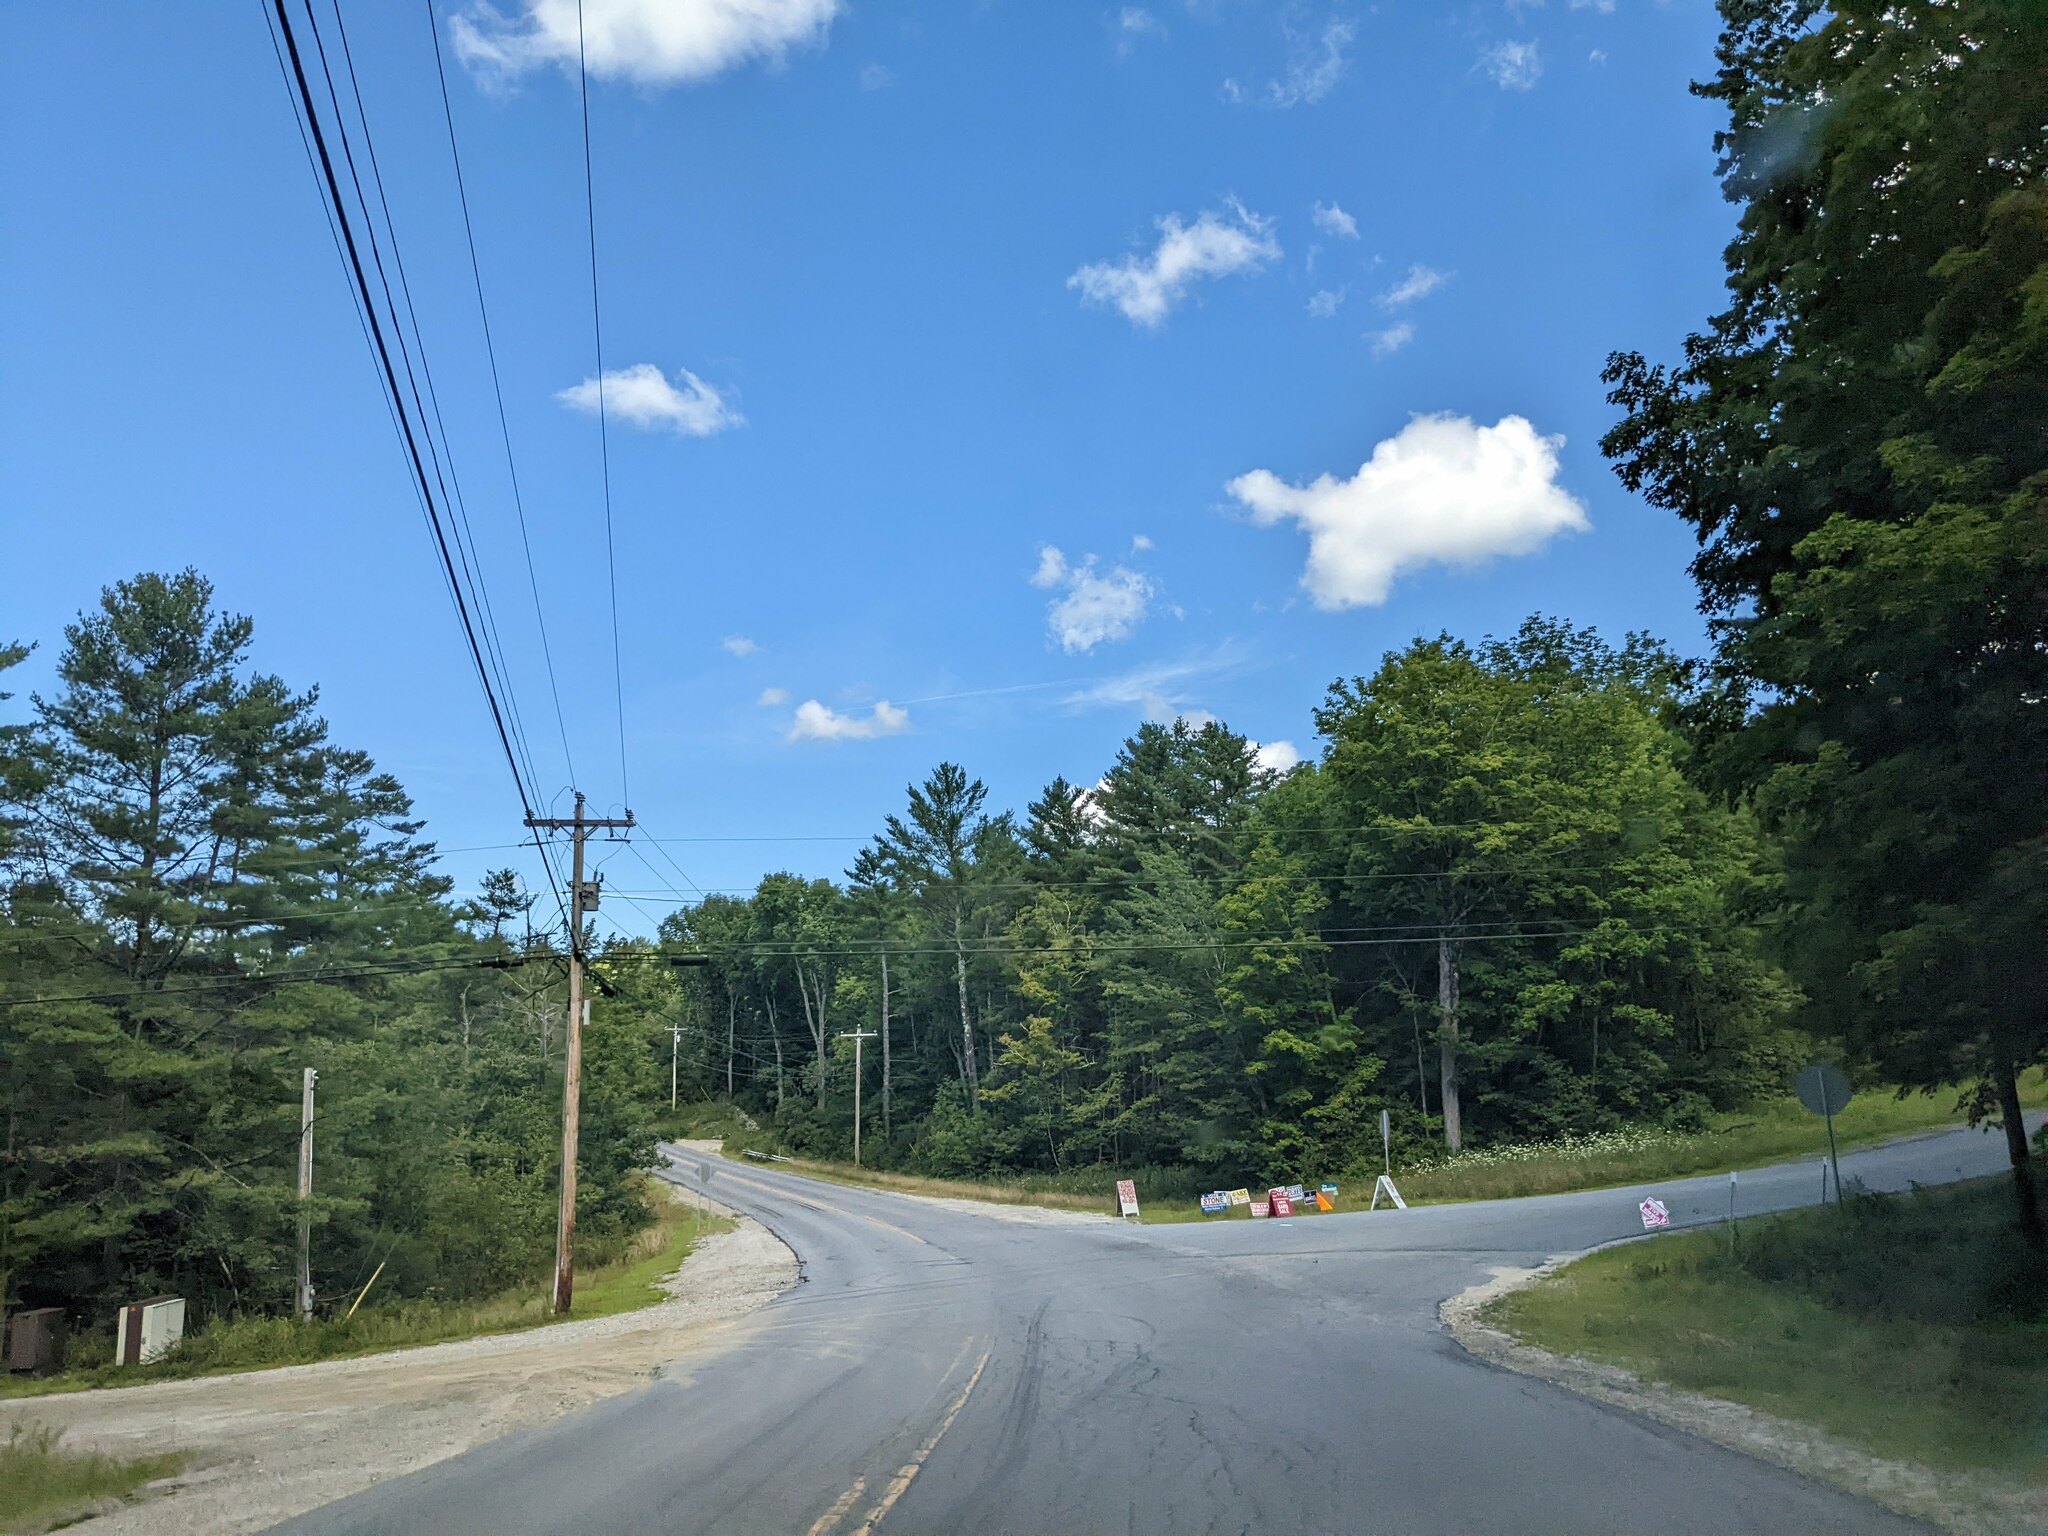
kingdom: Plantae
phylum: Tracheophyta
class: Pinopsida
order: Pinales
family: Pinaceae
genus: Pinus
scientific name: Pinus strobus
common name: Weymouth pine
